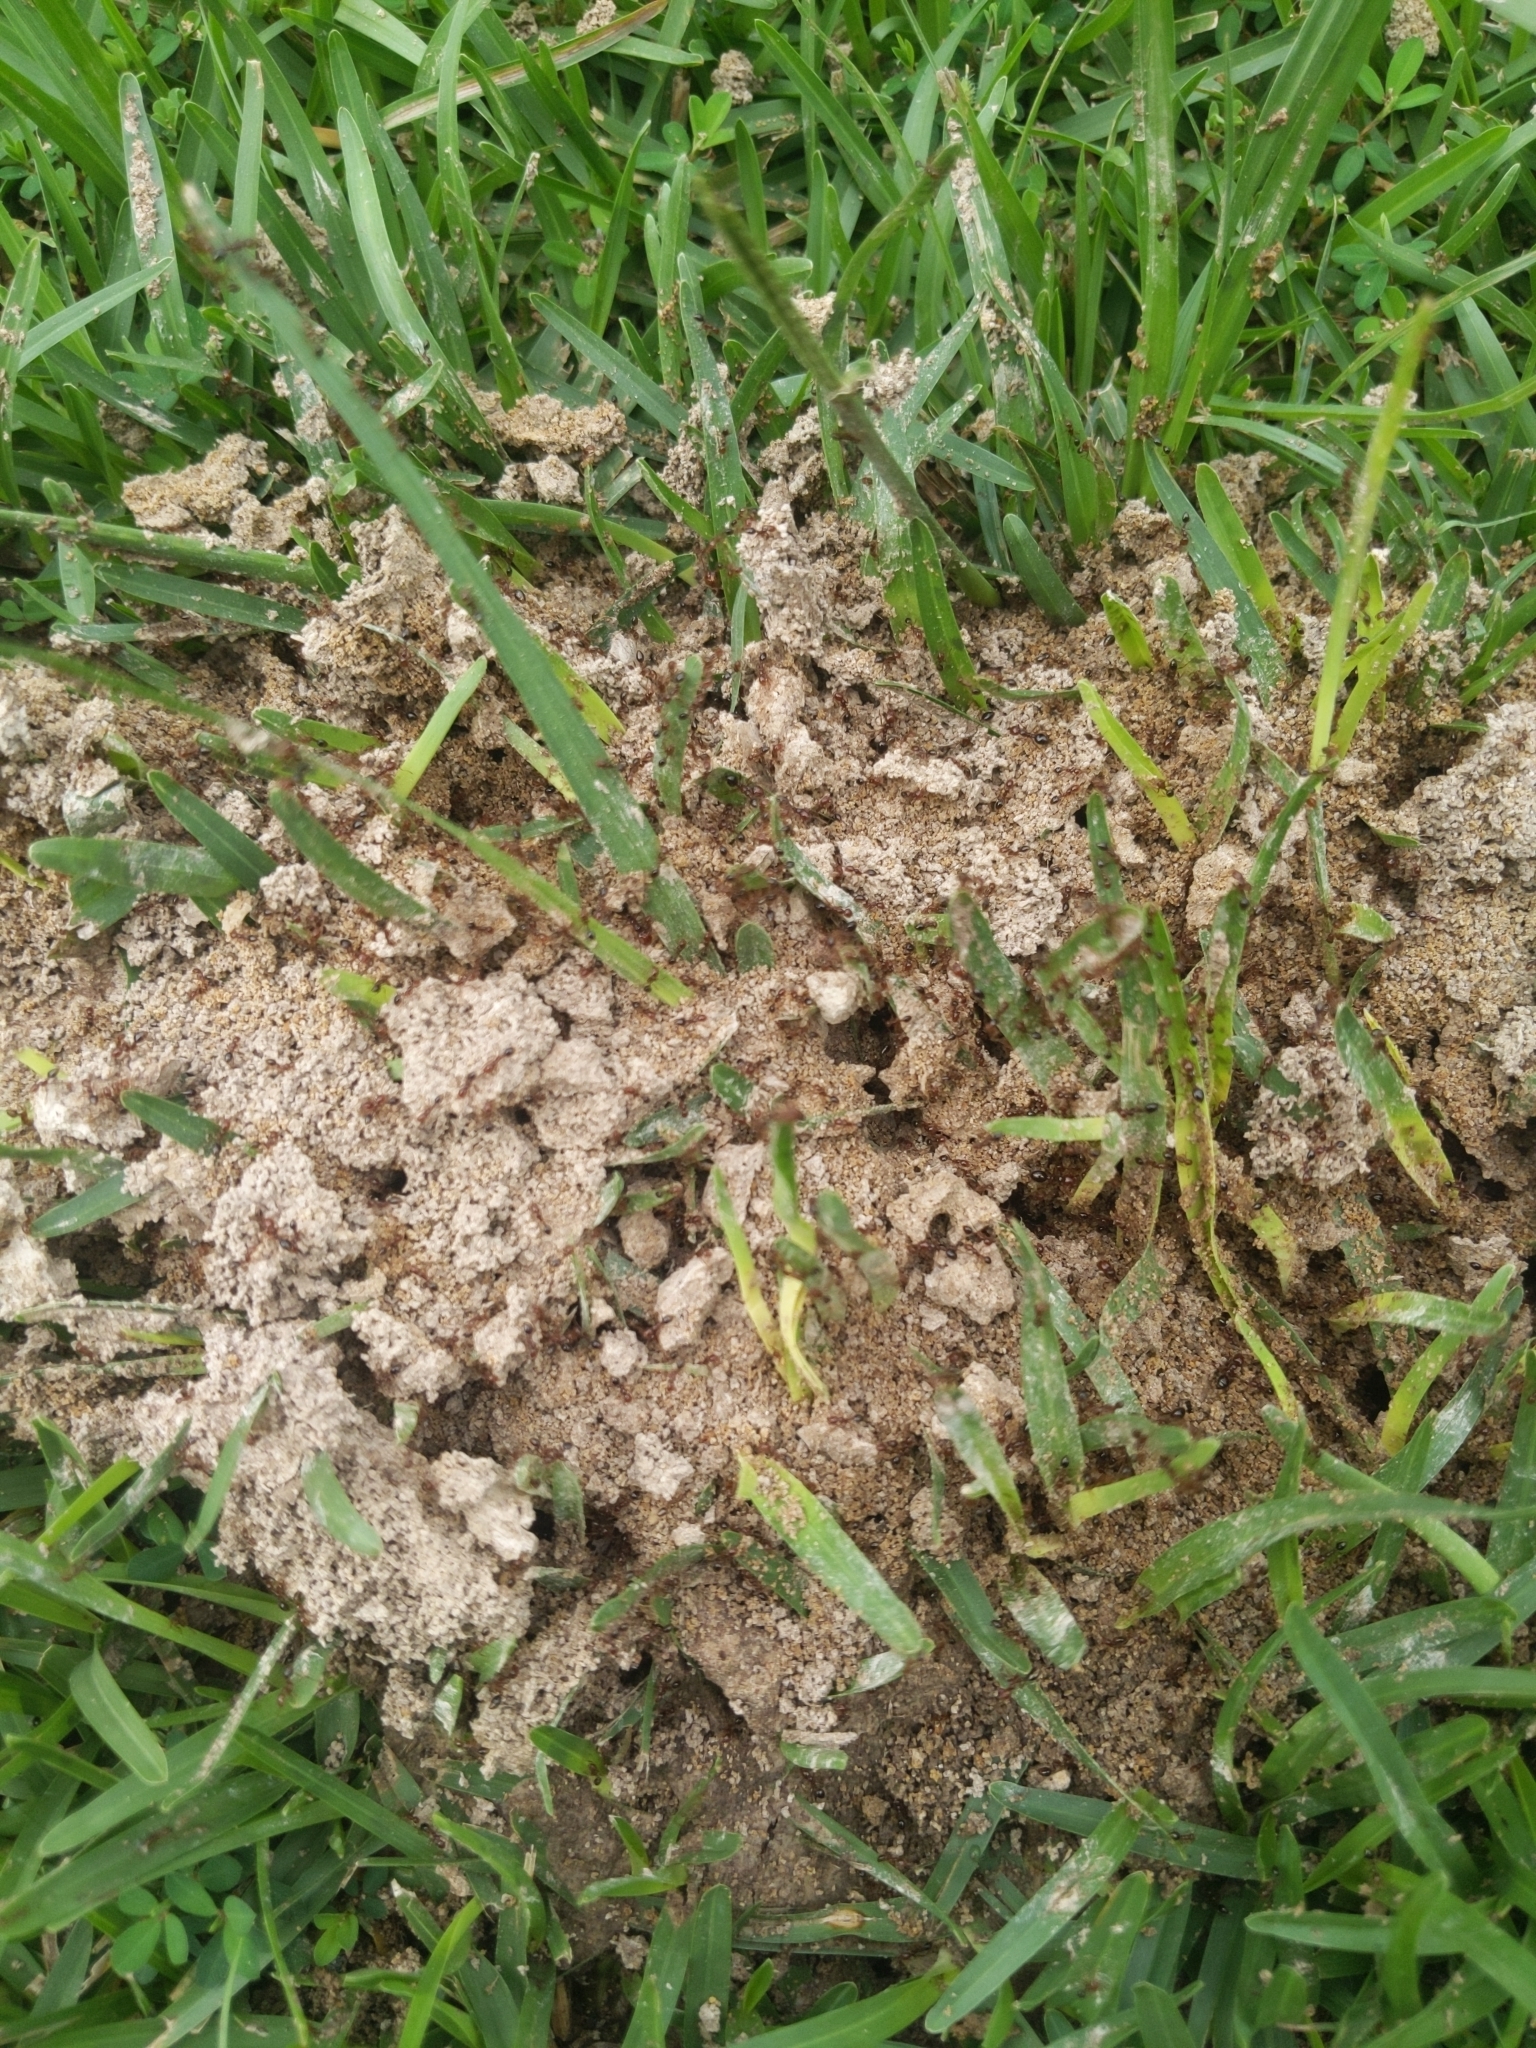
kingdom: Animalia
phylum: Arthropoda
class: Insecta
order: Hymenoptera
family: Formicidae
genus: Solenopsis
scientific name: Solenopsis invicta
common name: Red imported fire ant
